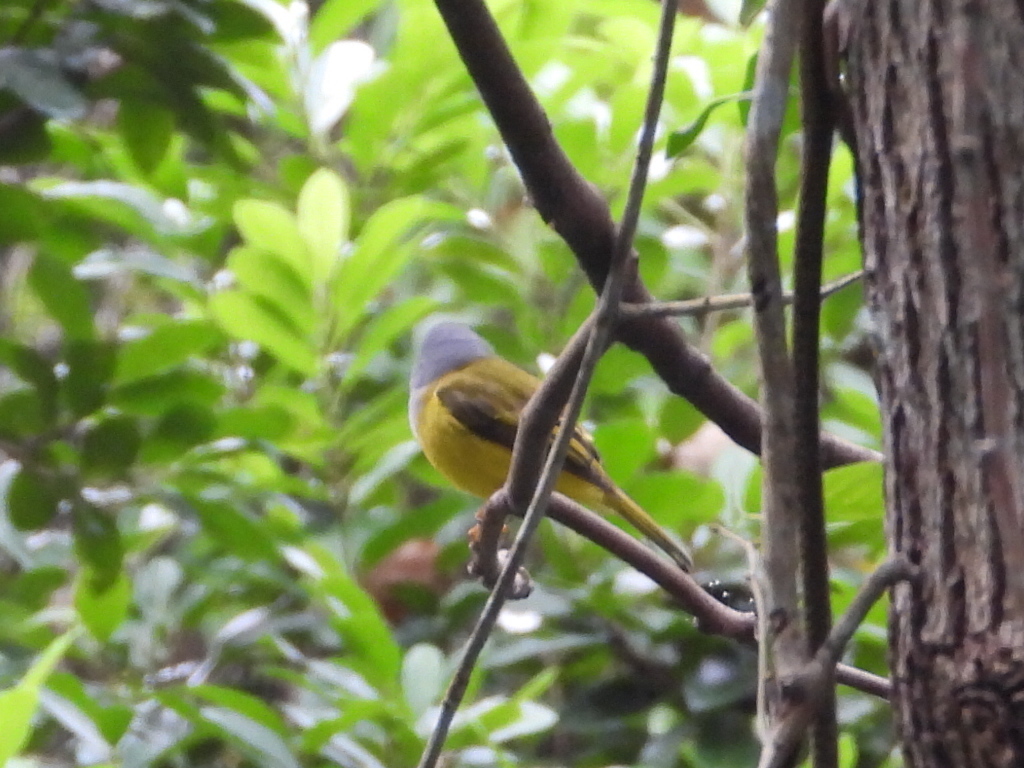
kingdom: Animalia
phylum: Chordata
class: Aves
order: Passeriformes
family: Stenostiridae
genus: Culicicapa
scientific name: Culicicapa ceylonensis
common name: Grey-headed canary-flycatcher
